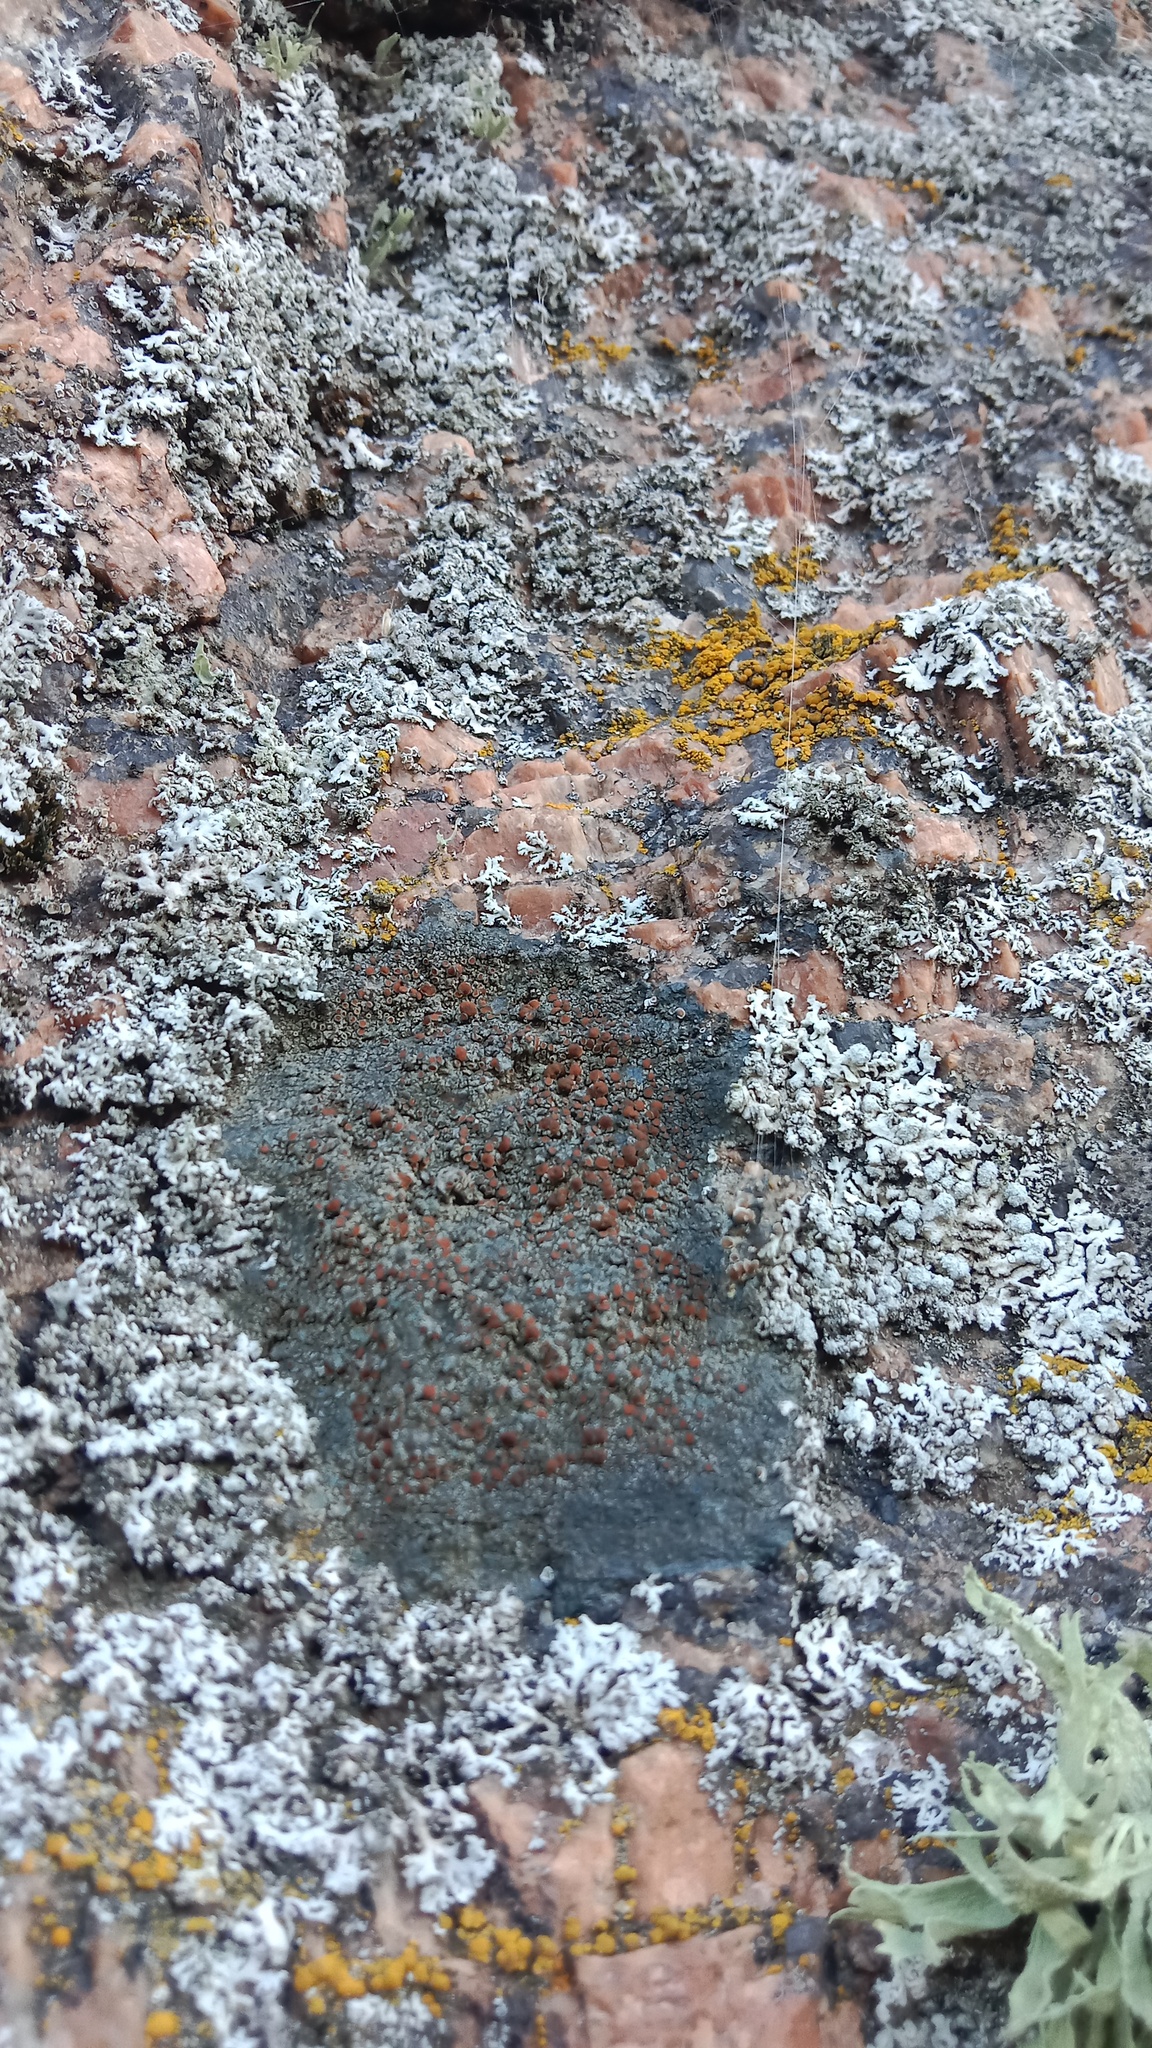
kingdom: Fungi
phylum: Ascomycota
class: Lecanoromycetes
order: Teloschistales
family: Teloschistaceae
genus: Sanguineodiscus
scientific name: Sanguineodiscus aractinus
